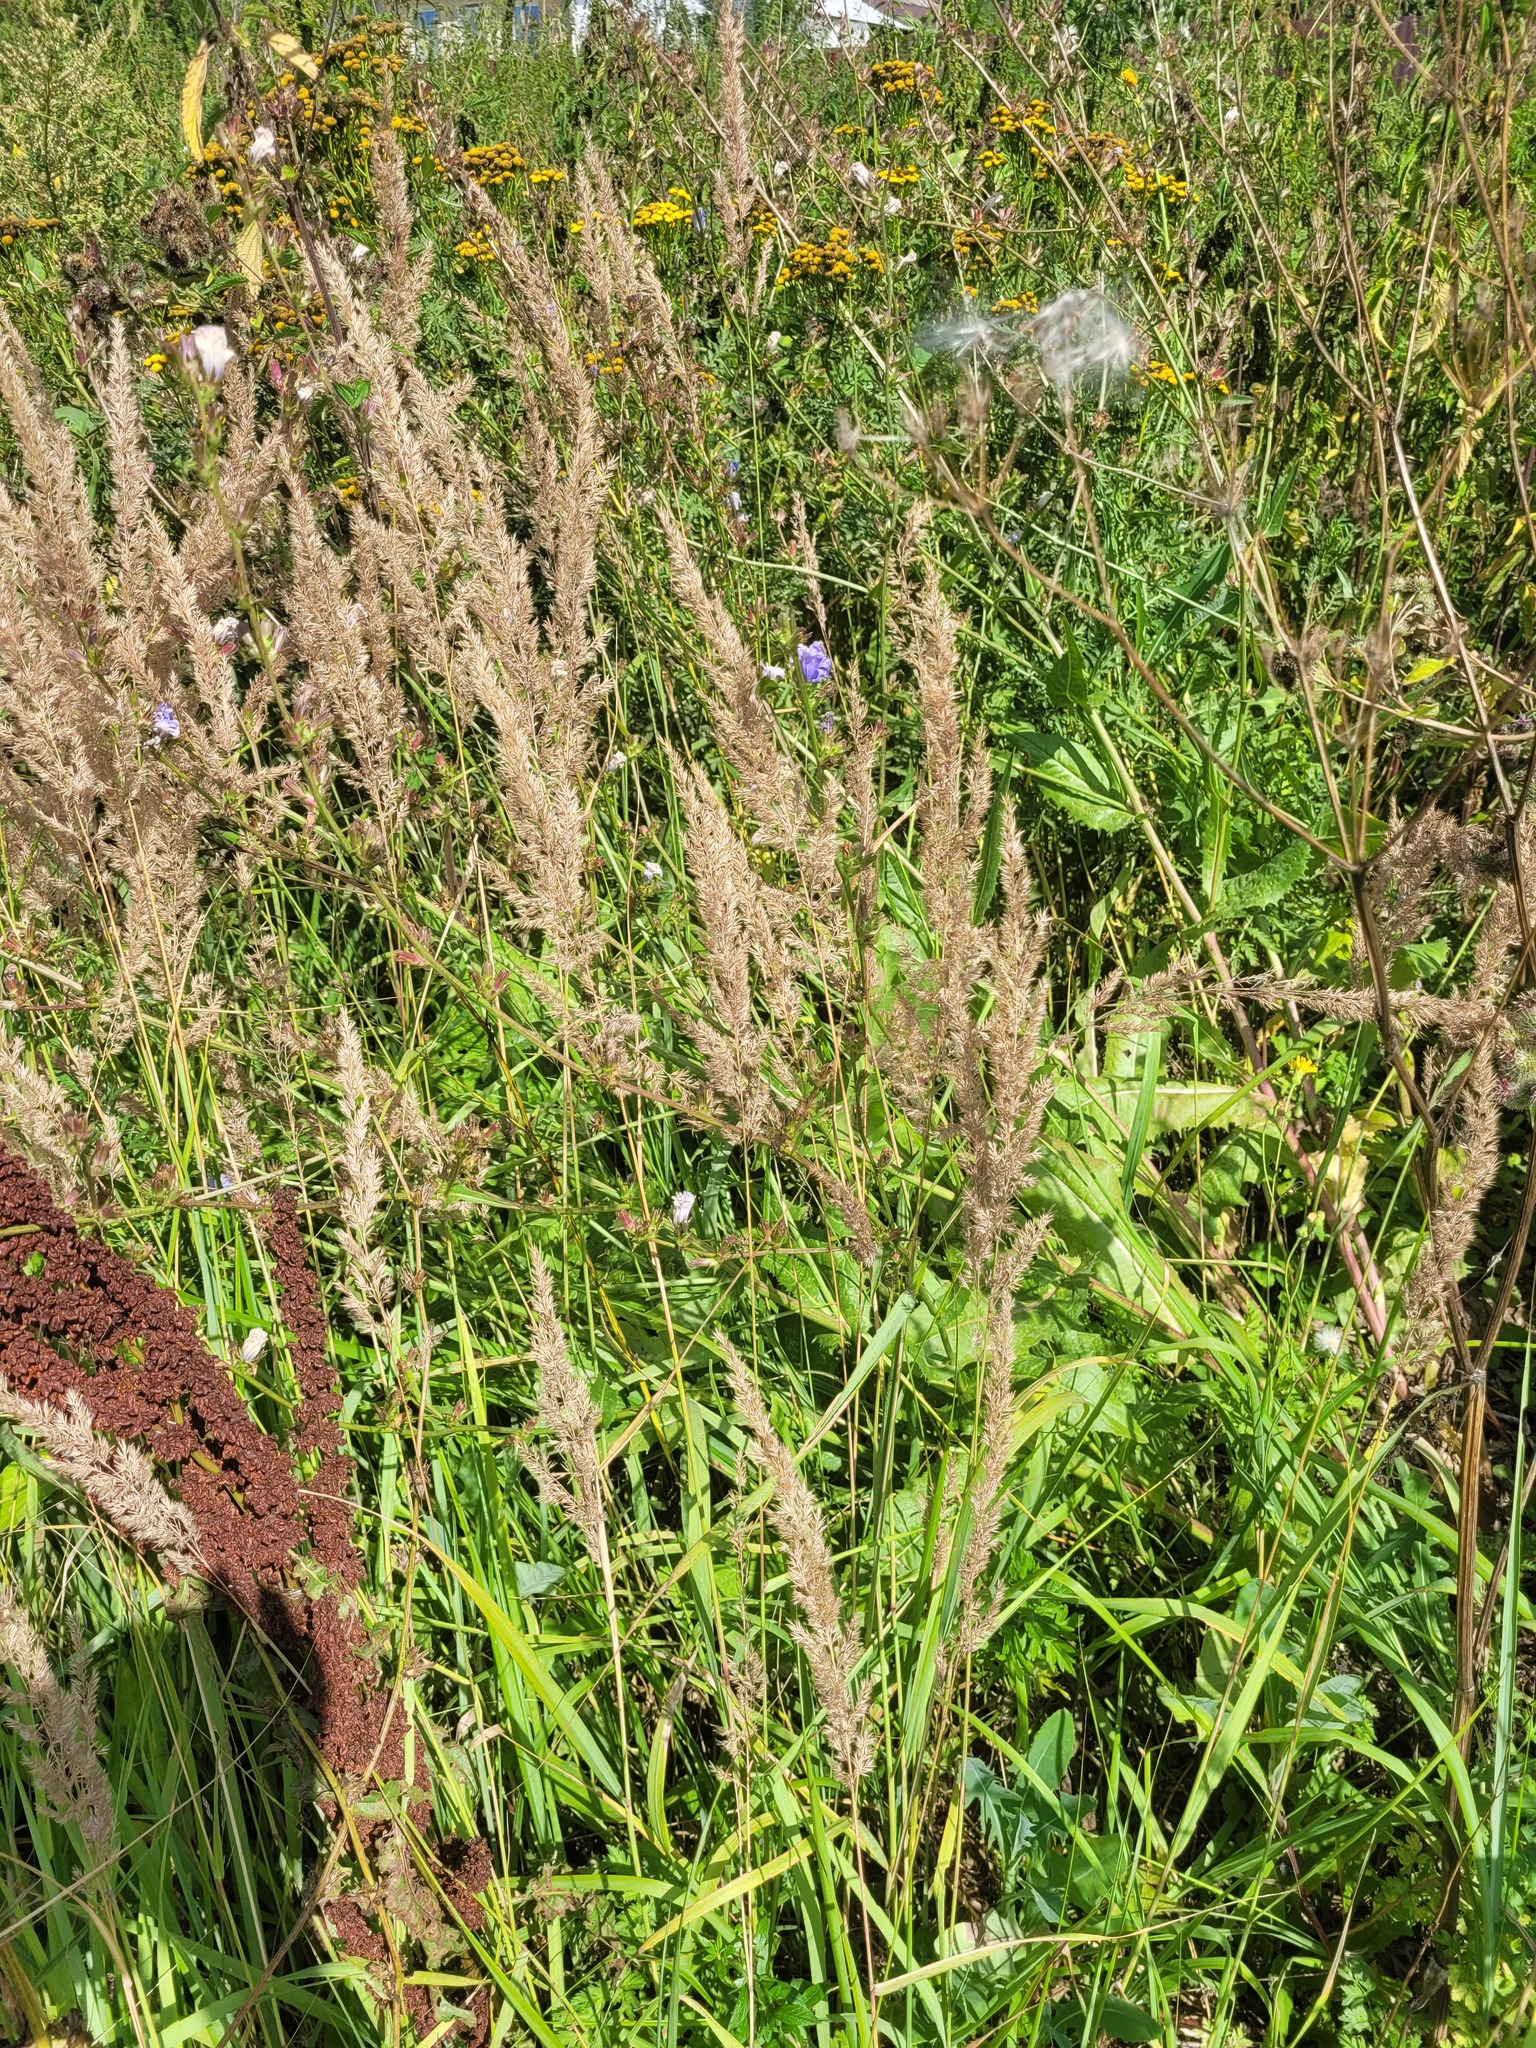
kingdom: Plantae
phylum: Tracheophyta
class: Liliopsida
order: Poales
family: Poaceae
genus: Calamagrostis
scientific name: Calamagrostis epigejos
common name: Wood small-reed
